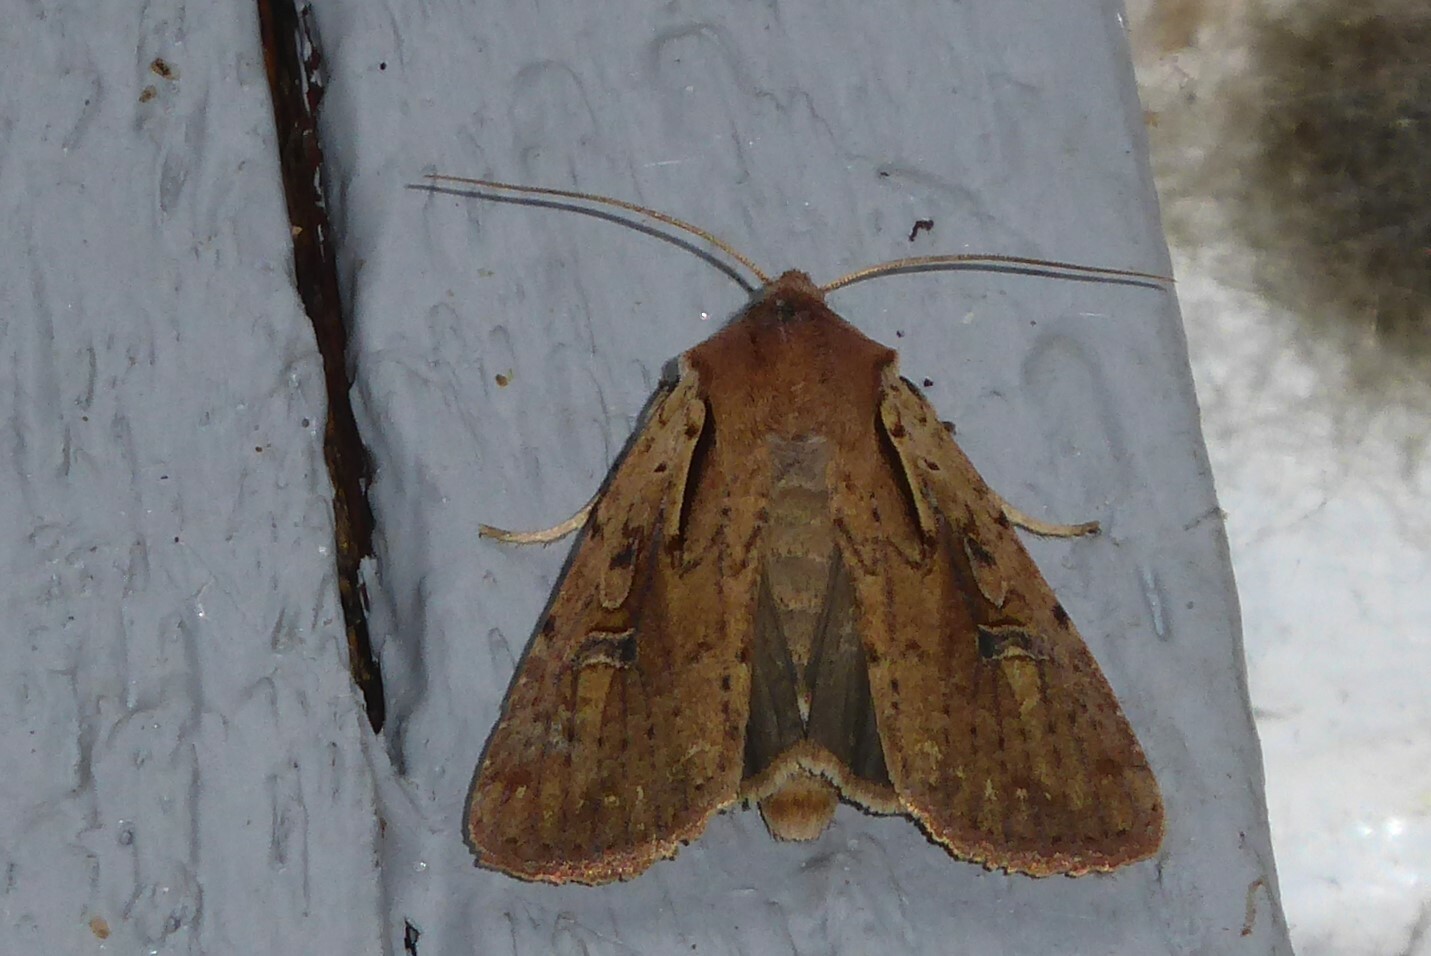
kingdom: Animalia
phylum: Arthropoda
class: Insecta
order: Lepidoptera
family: Noctuidae
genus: Ichneutica
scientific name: Ichneutica atristriga
